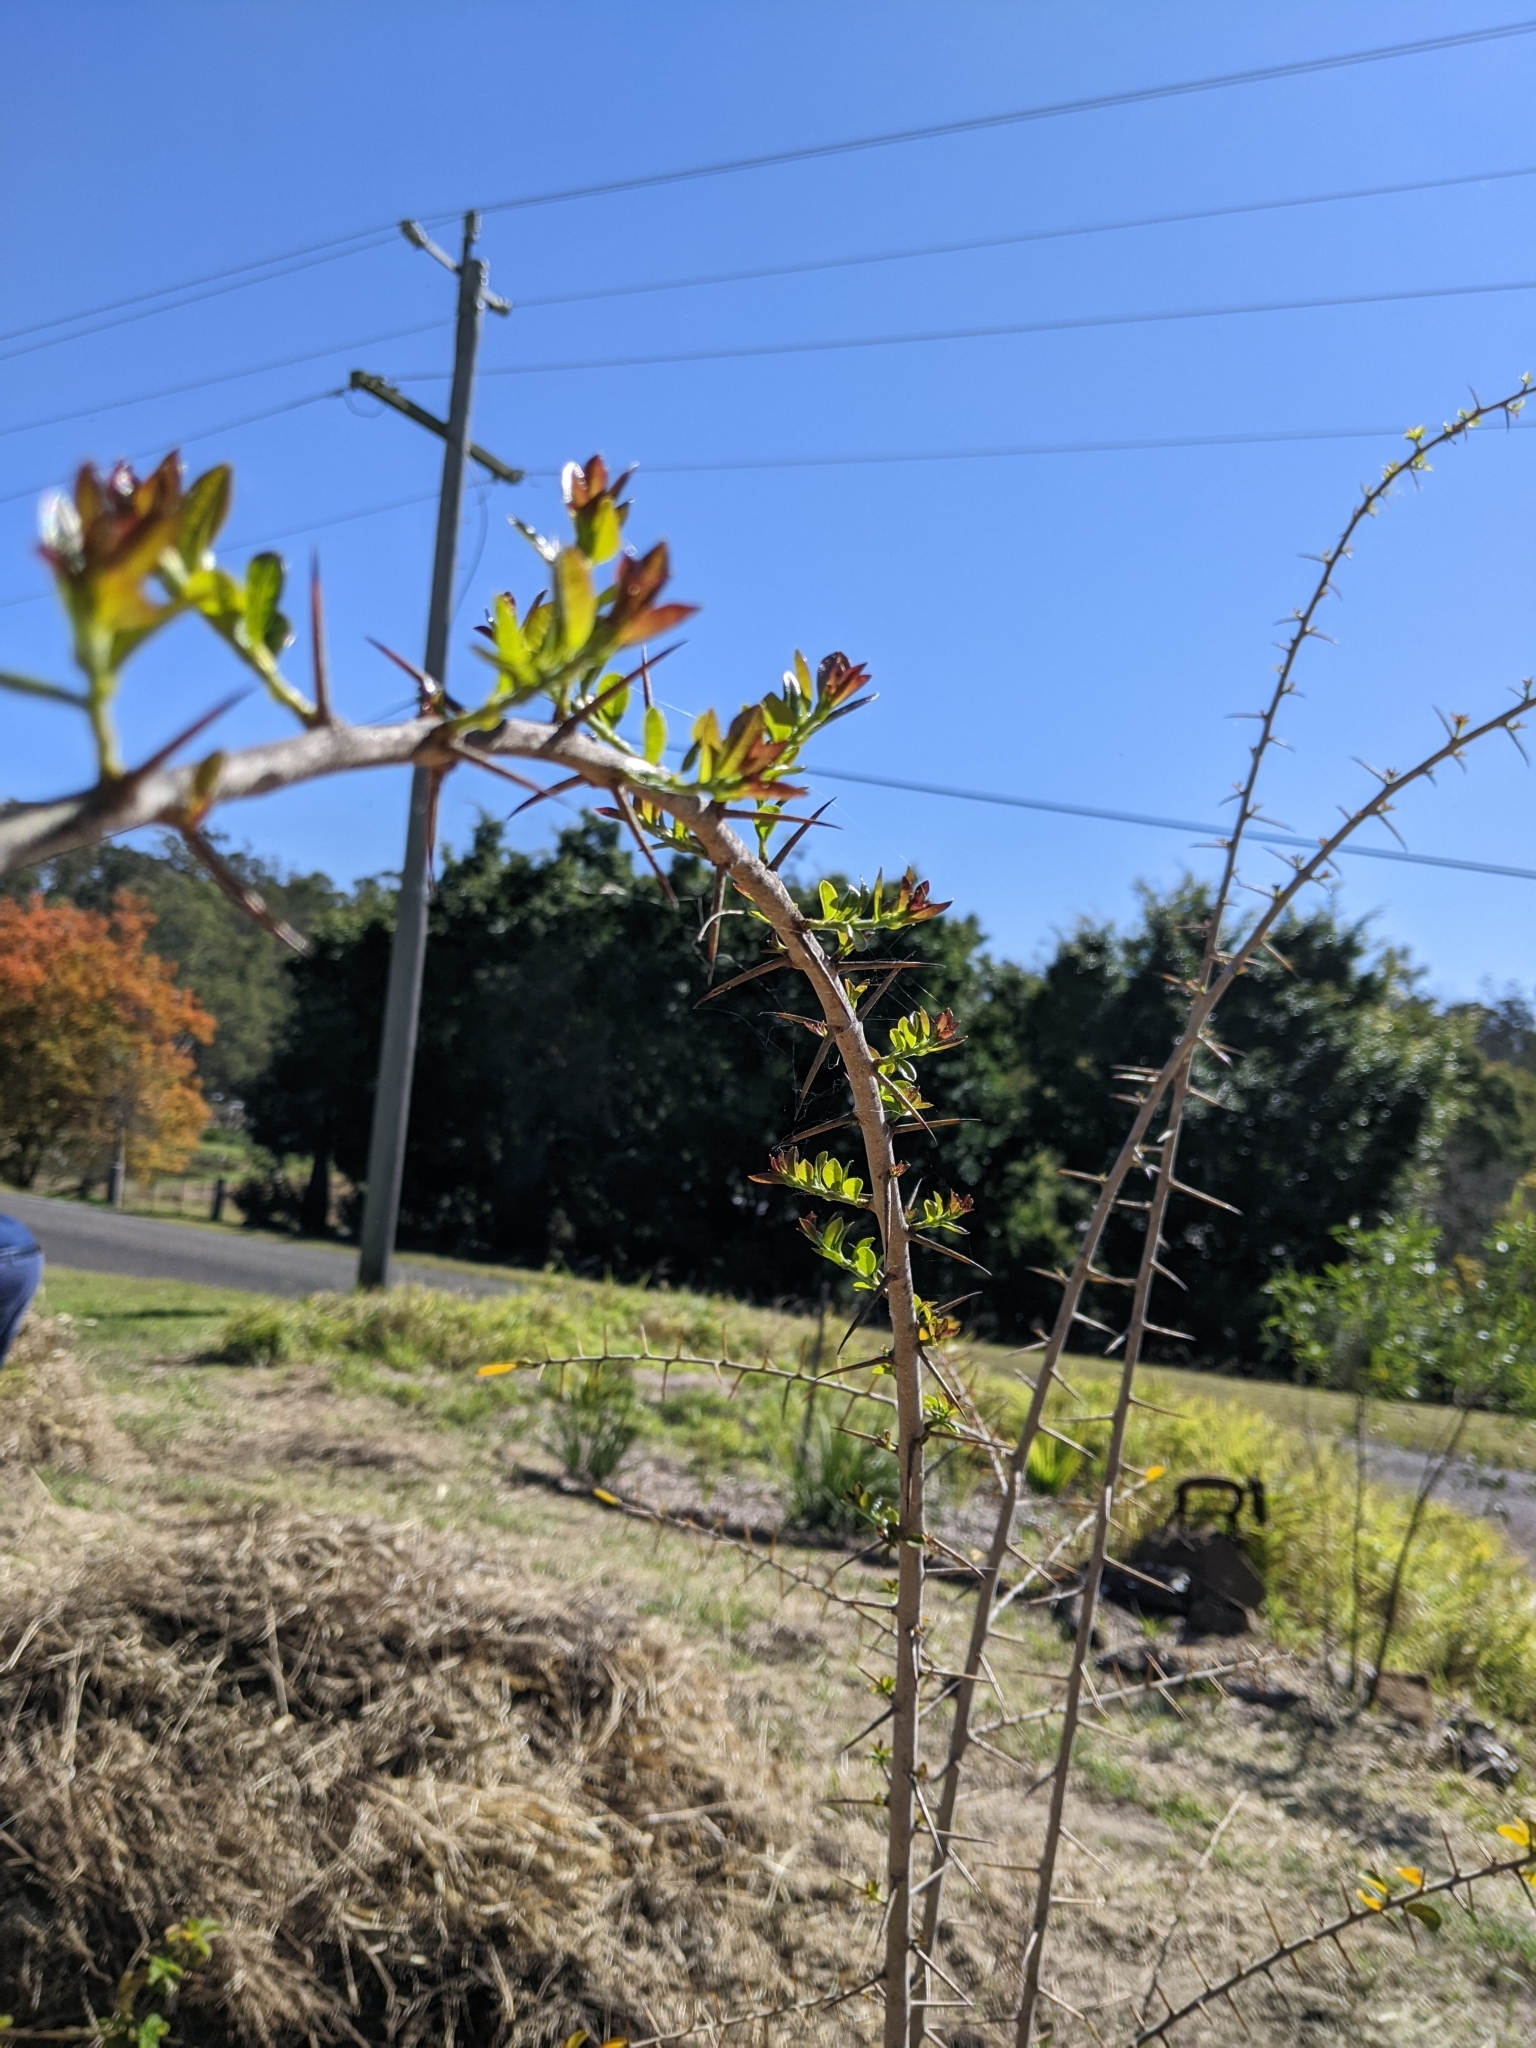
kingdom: Plantae
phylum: Tracheophyta
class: Magnoliopsida
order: Rosales
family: Moraceae
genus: Maclura
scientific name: Maclura cochinchinensis
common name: Cockspurthorn
